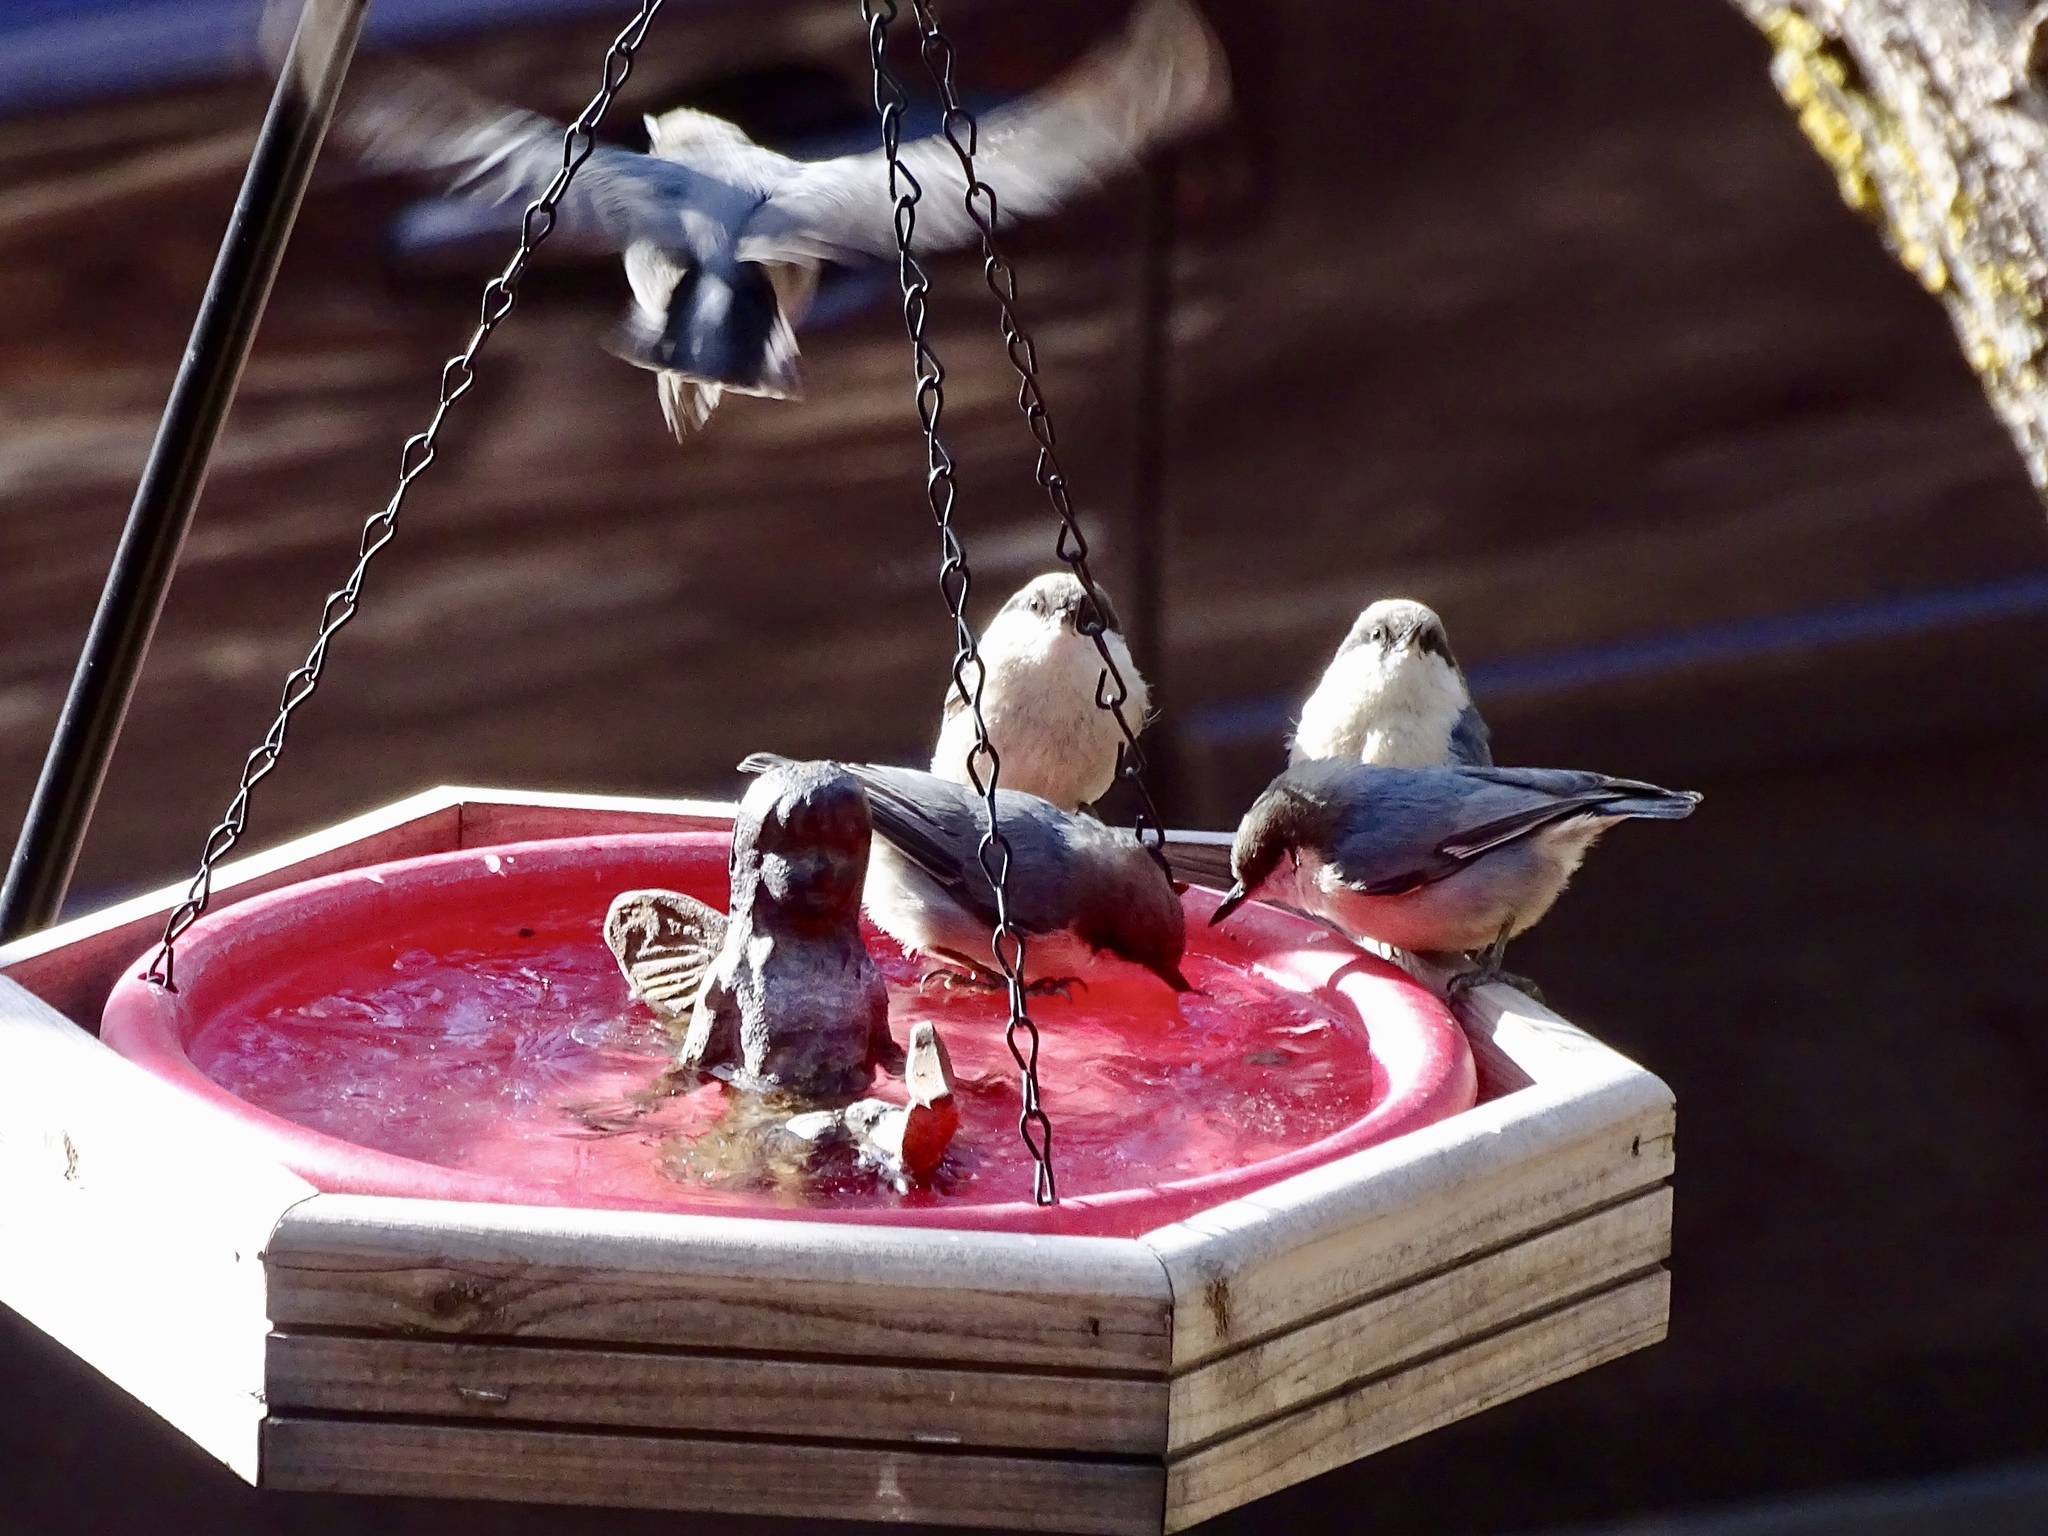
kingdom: Animalia
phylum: Chordata
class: Aves
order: Passeriformes
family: Sittidae
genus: Sitta
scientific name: Sitta pygmaea
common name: Pygmy nuthatch
